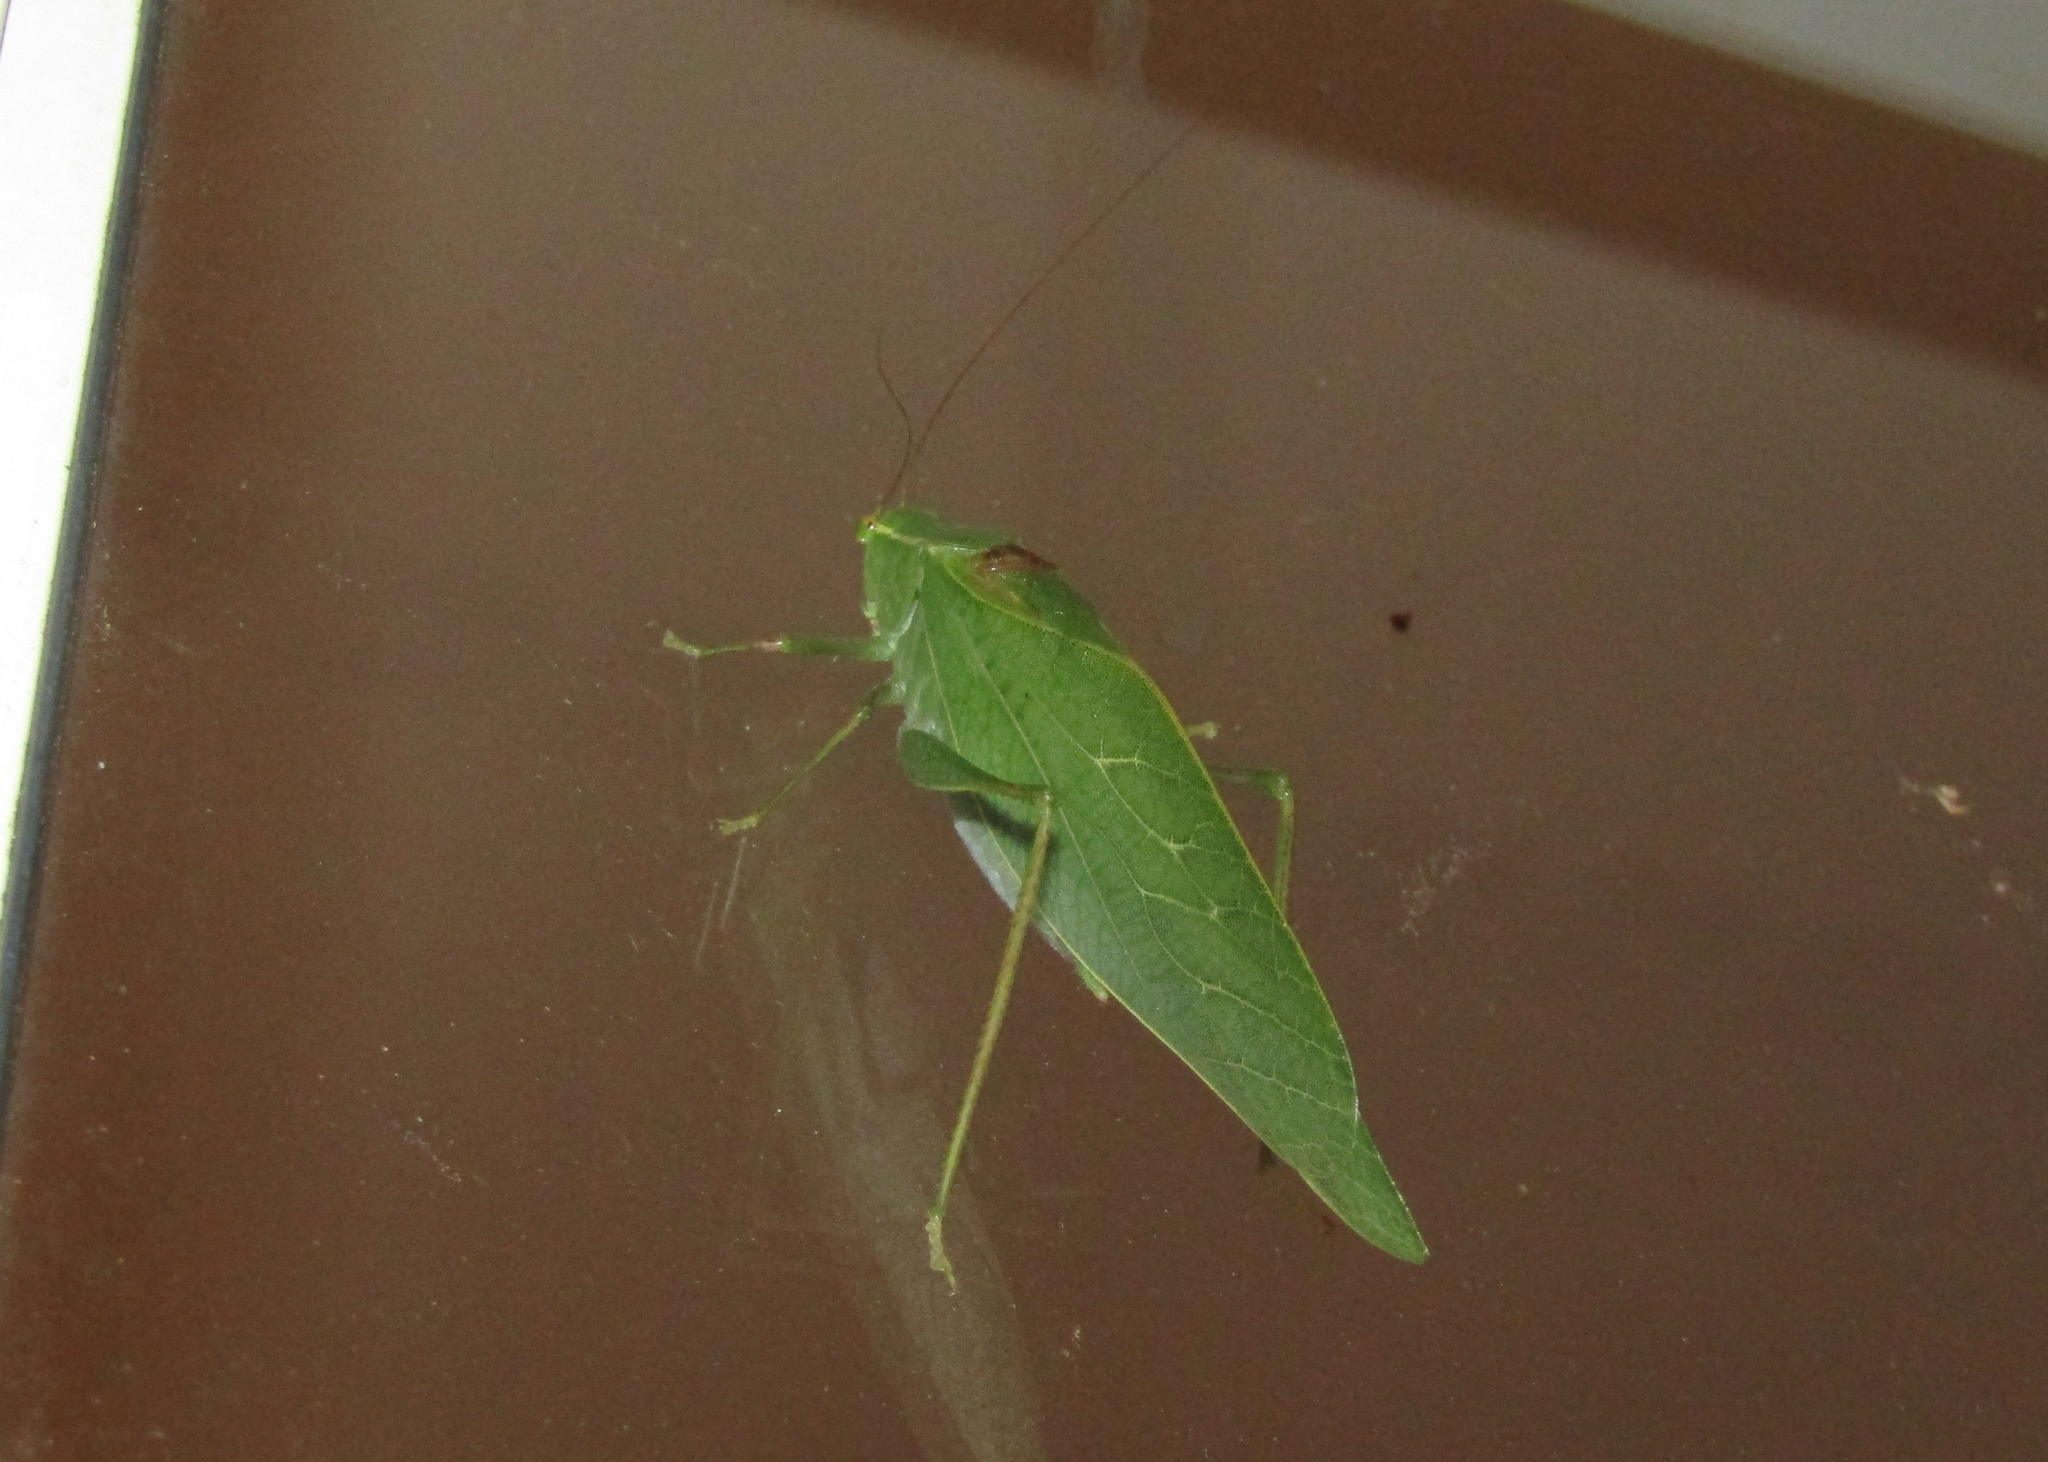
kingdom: Animalia
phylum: Arthropoda
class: Insecta
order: Orthoptera
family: Tettigoniidae
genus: Microcentrum
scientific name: Microcentrum retinerve
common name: Angular-winged katydid
